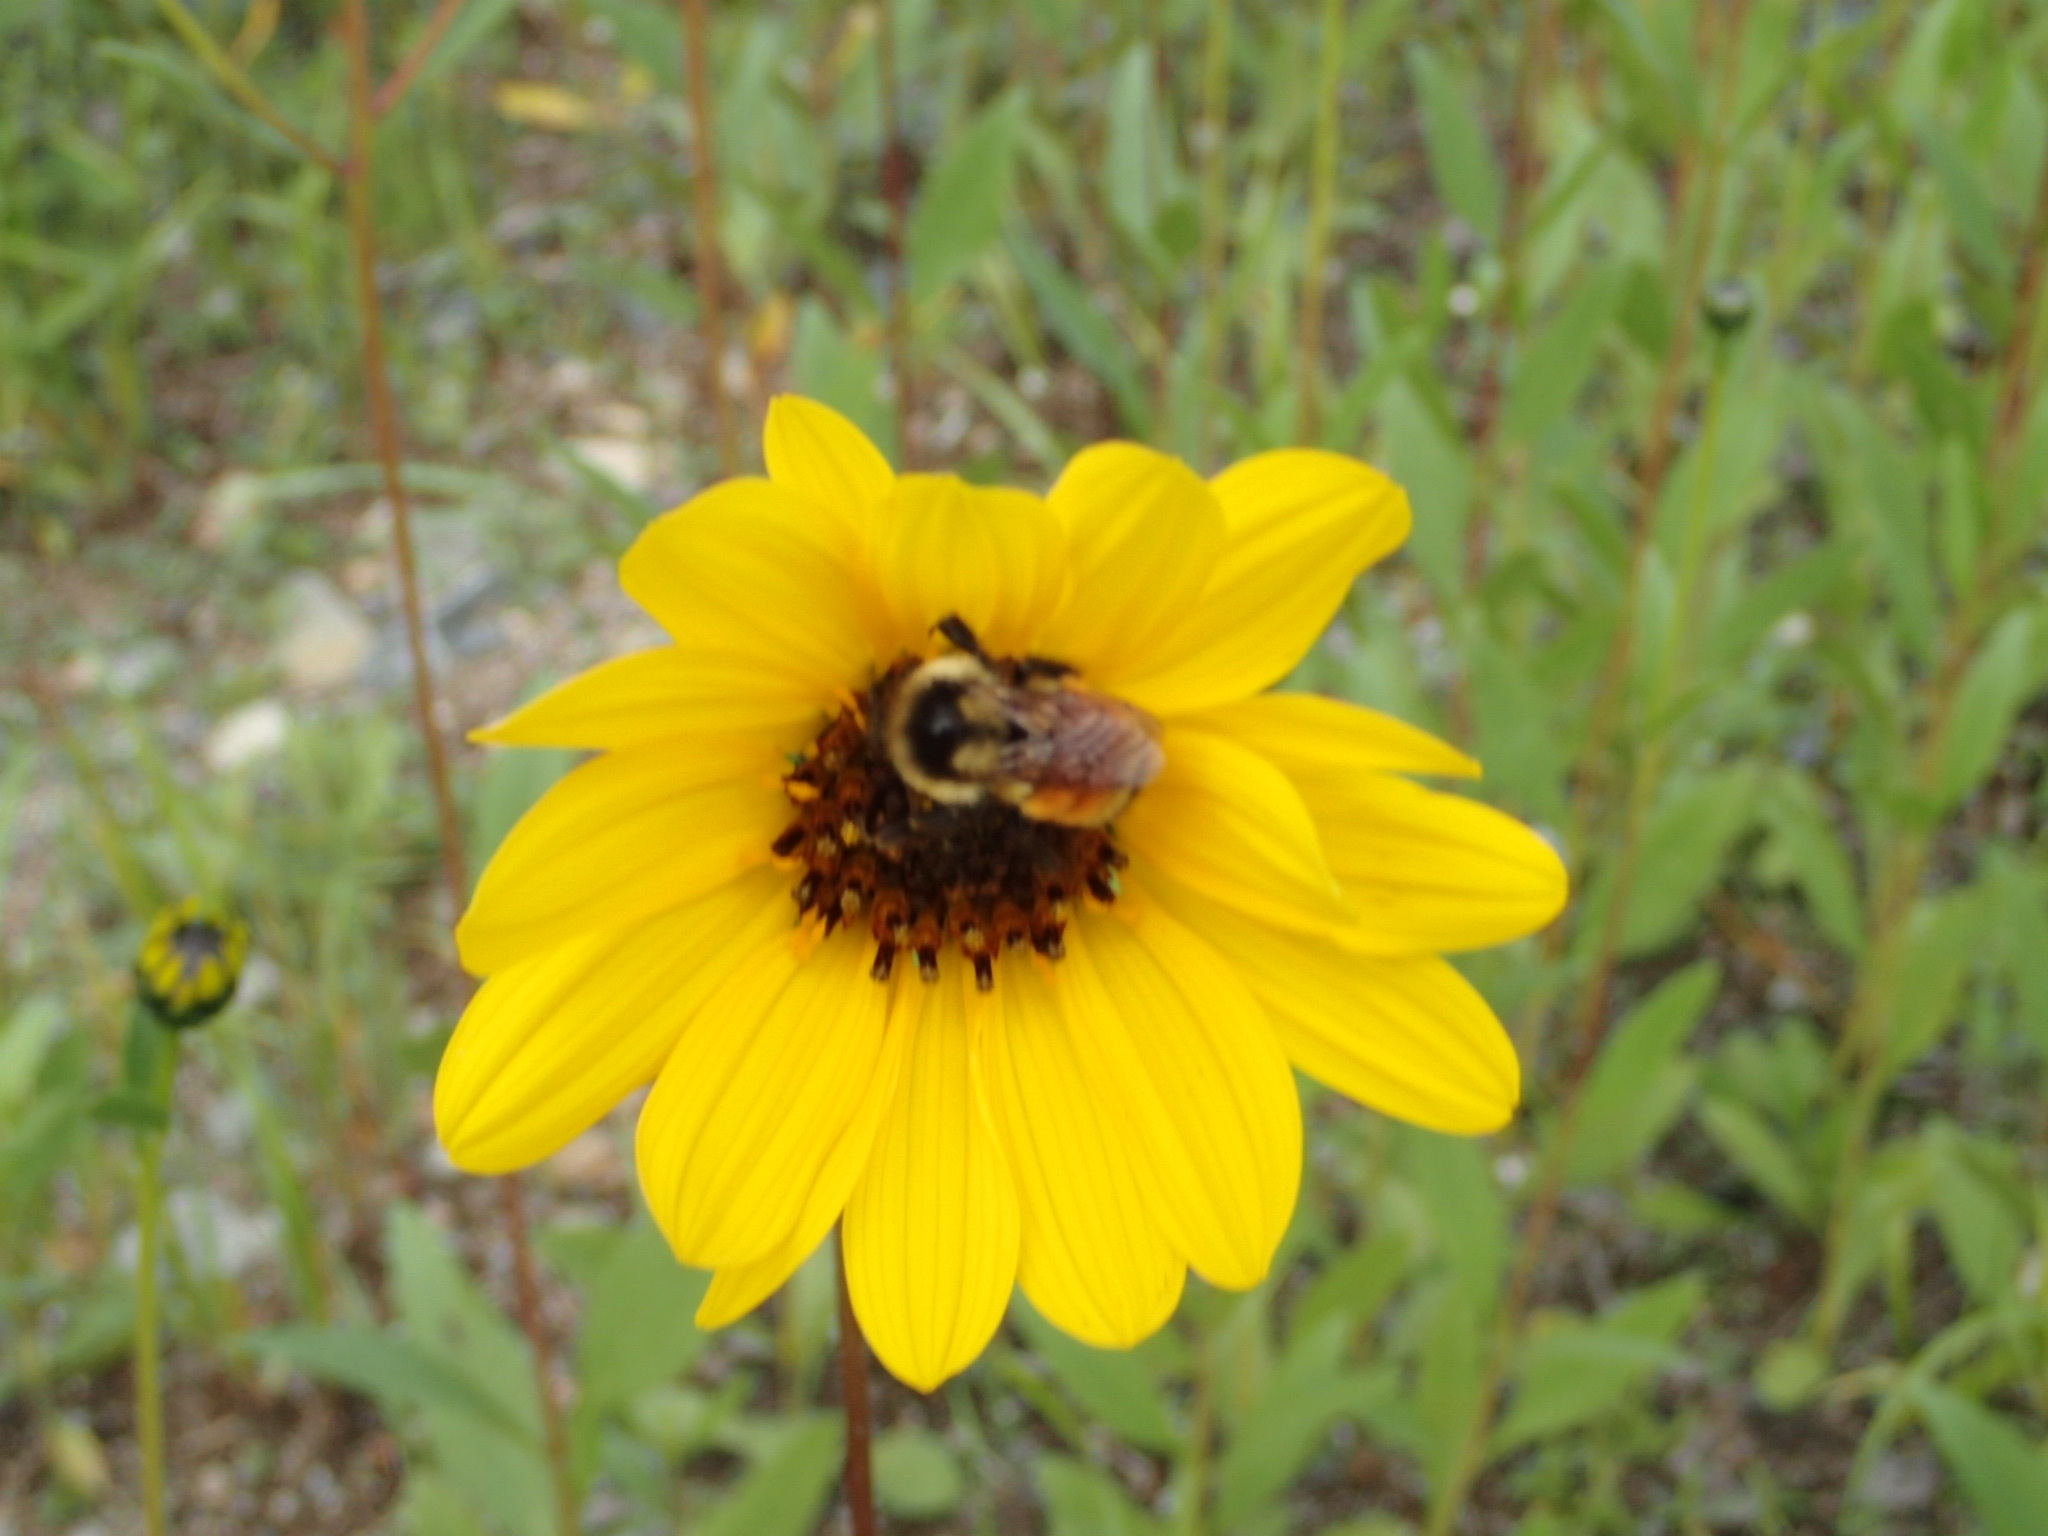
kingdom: Plantae
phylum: Tracheophyta
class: Magnoliopsida
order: Asterales
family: Asteraceae
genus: Helianthus
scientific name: Helianthus pauciflorus
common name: Stiff sunflower
